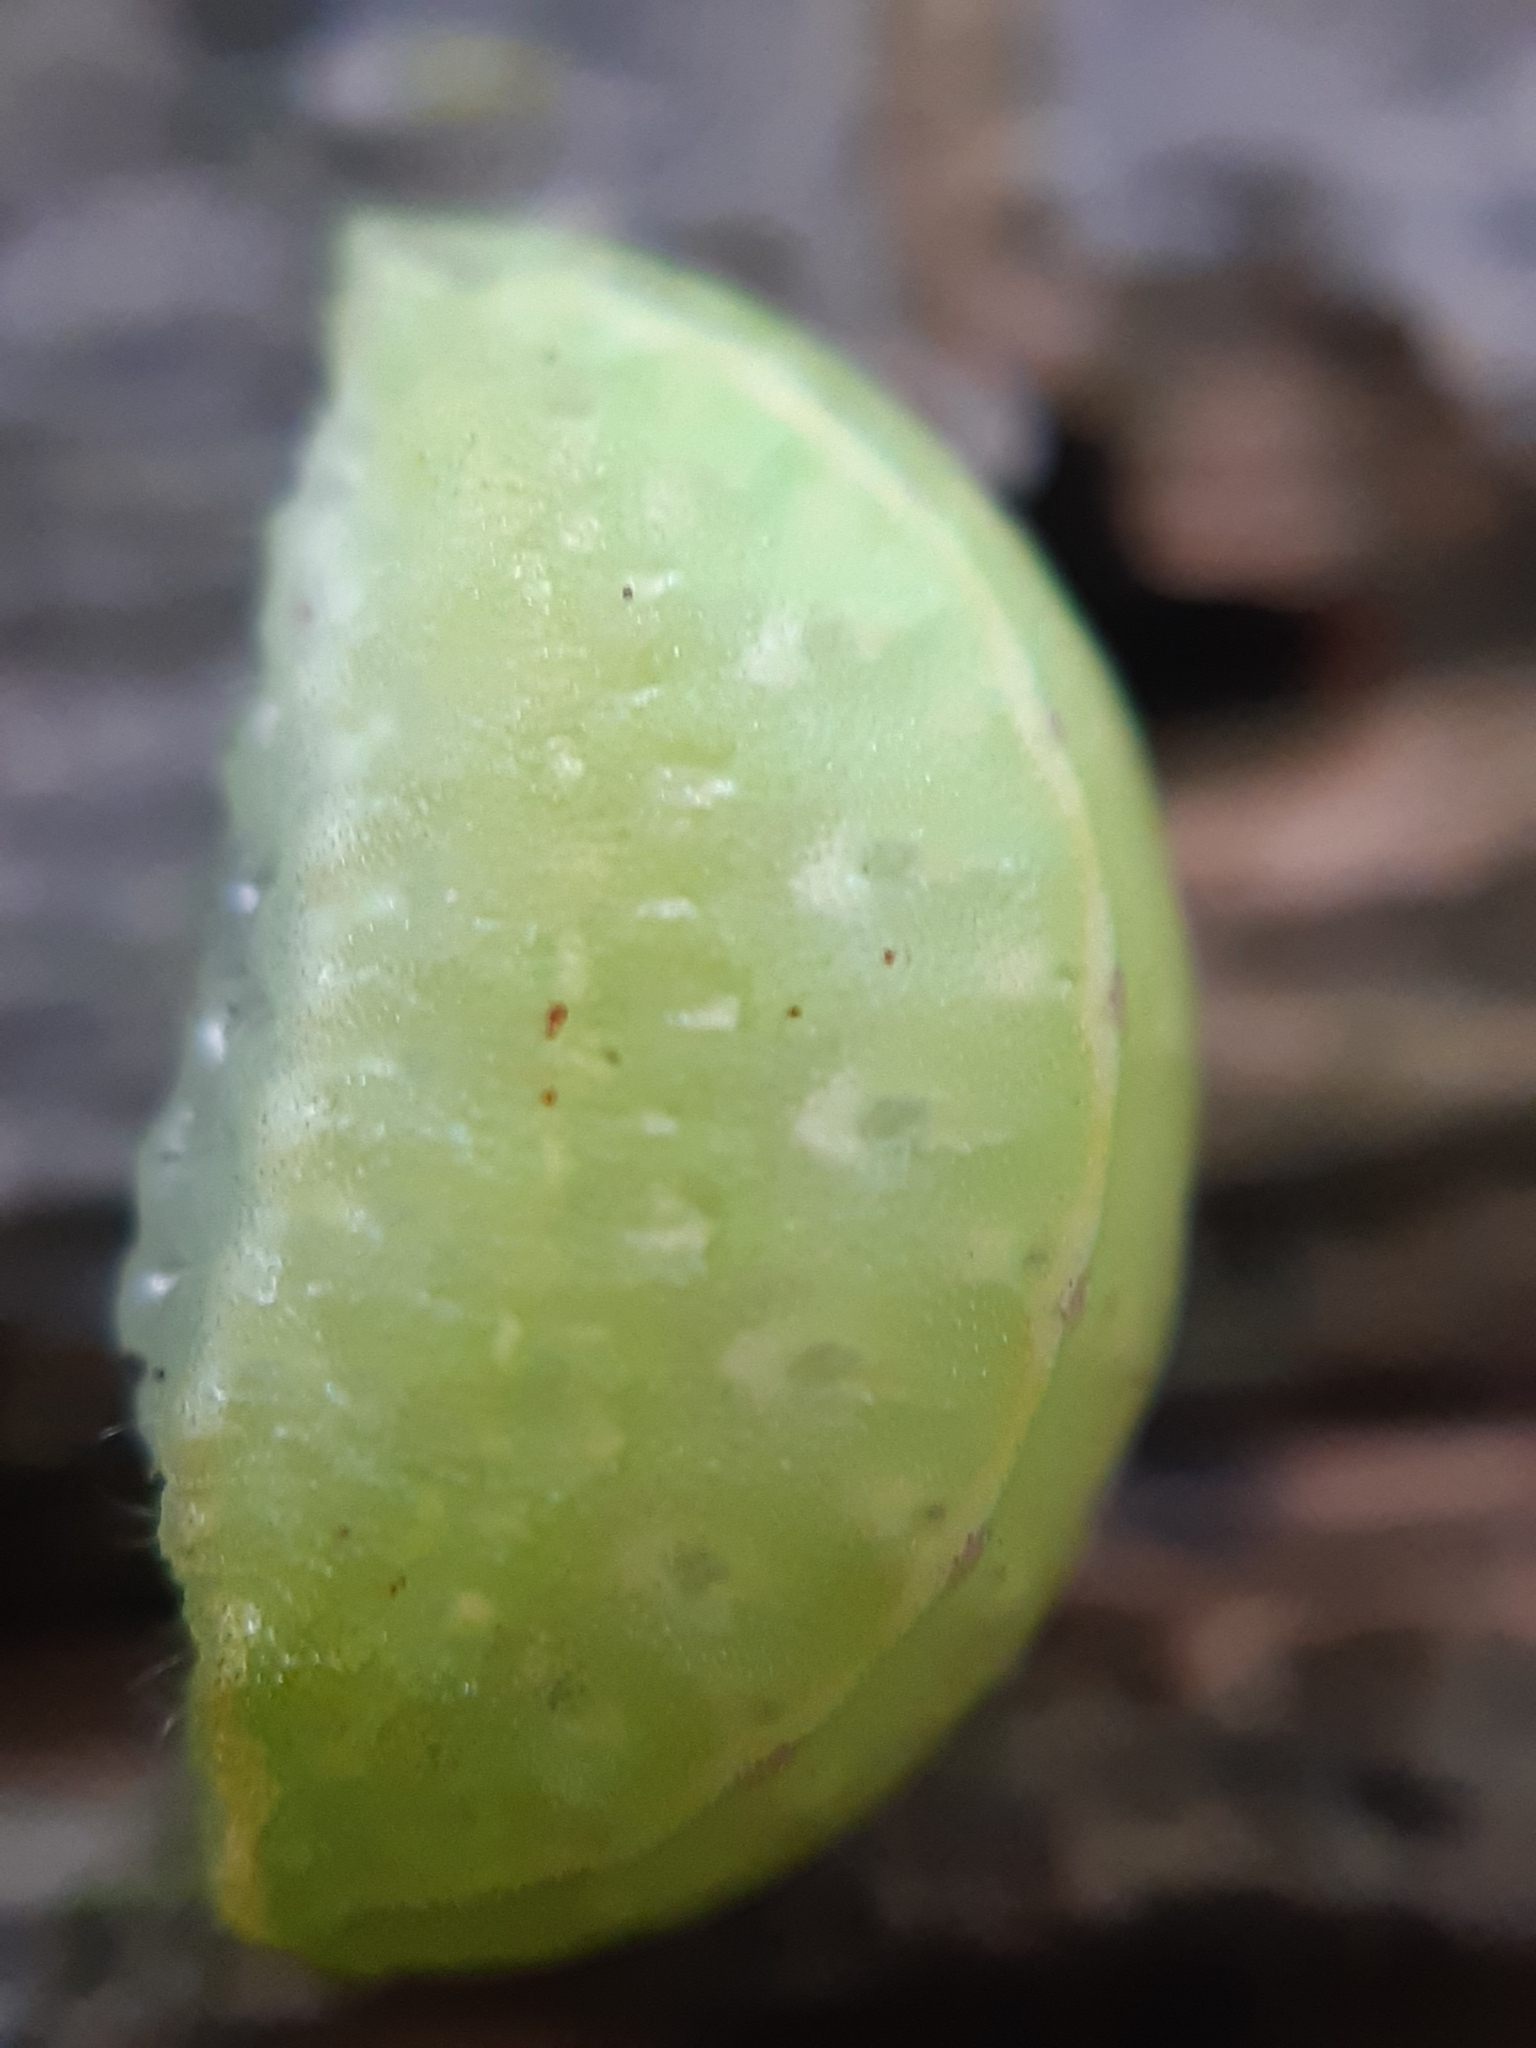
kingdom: Animalia
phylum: Arthropoda
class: Insecta
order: Lepidoptera
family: Limacodidae
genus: Apoda
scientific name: Apoda limacodes
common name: Festoon
